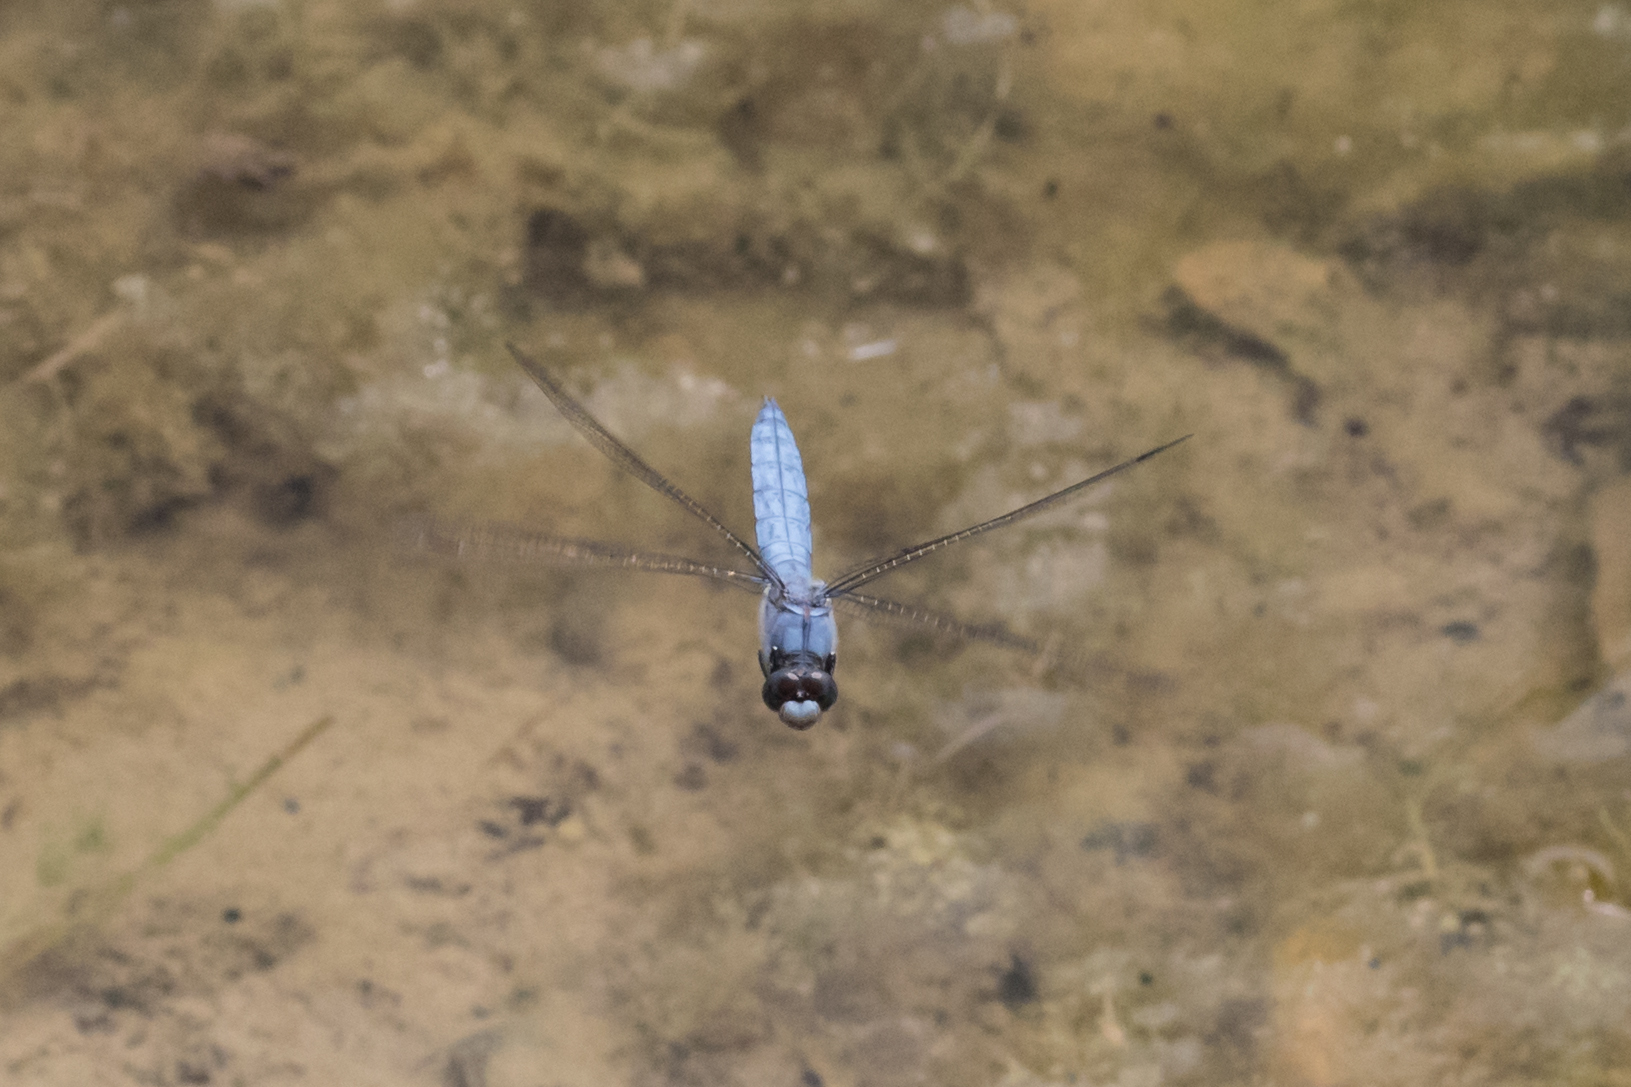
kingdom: Animalia
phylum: Arthropoda
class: Insecta
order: Odonata
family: Libellulidae
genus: Orthetrum
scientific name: Orthetrum brunneum
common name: Southern skimmer
